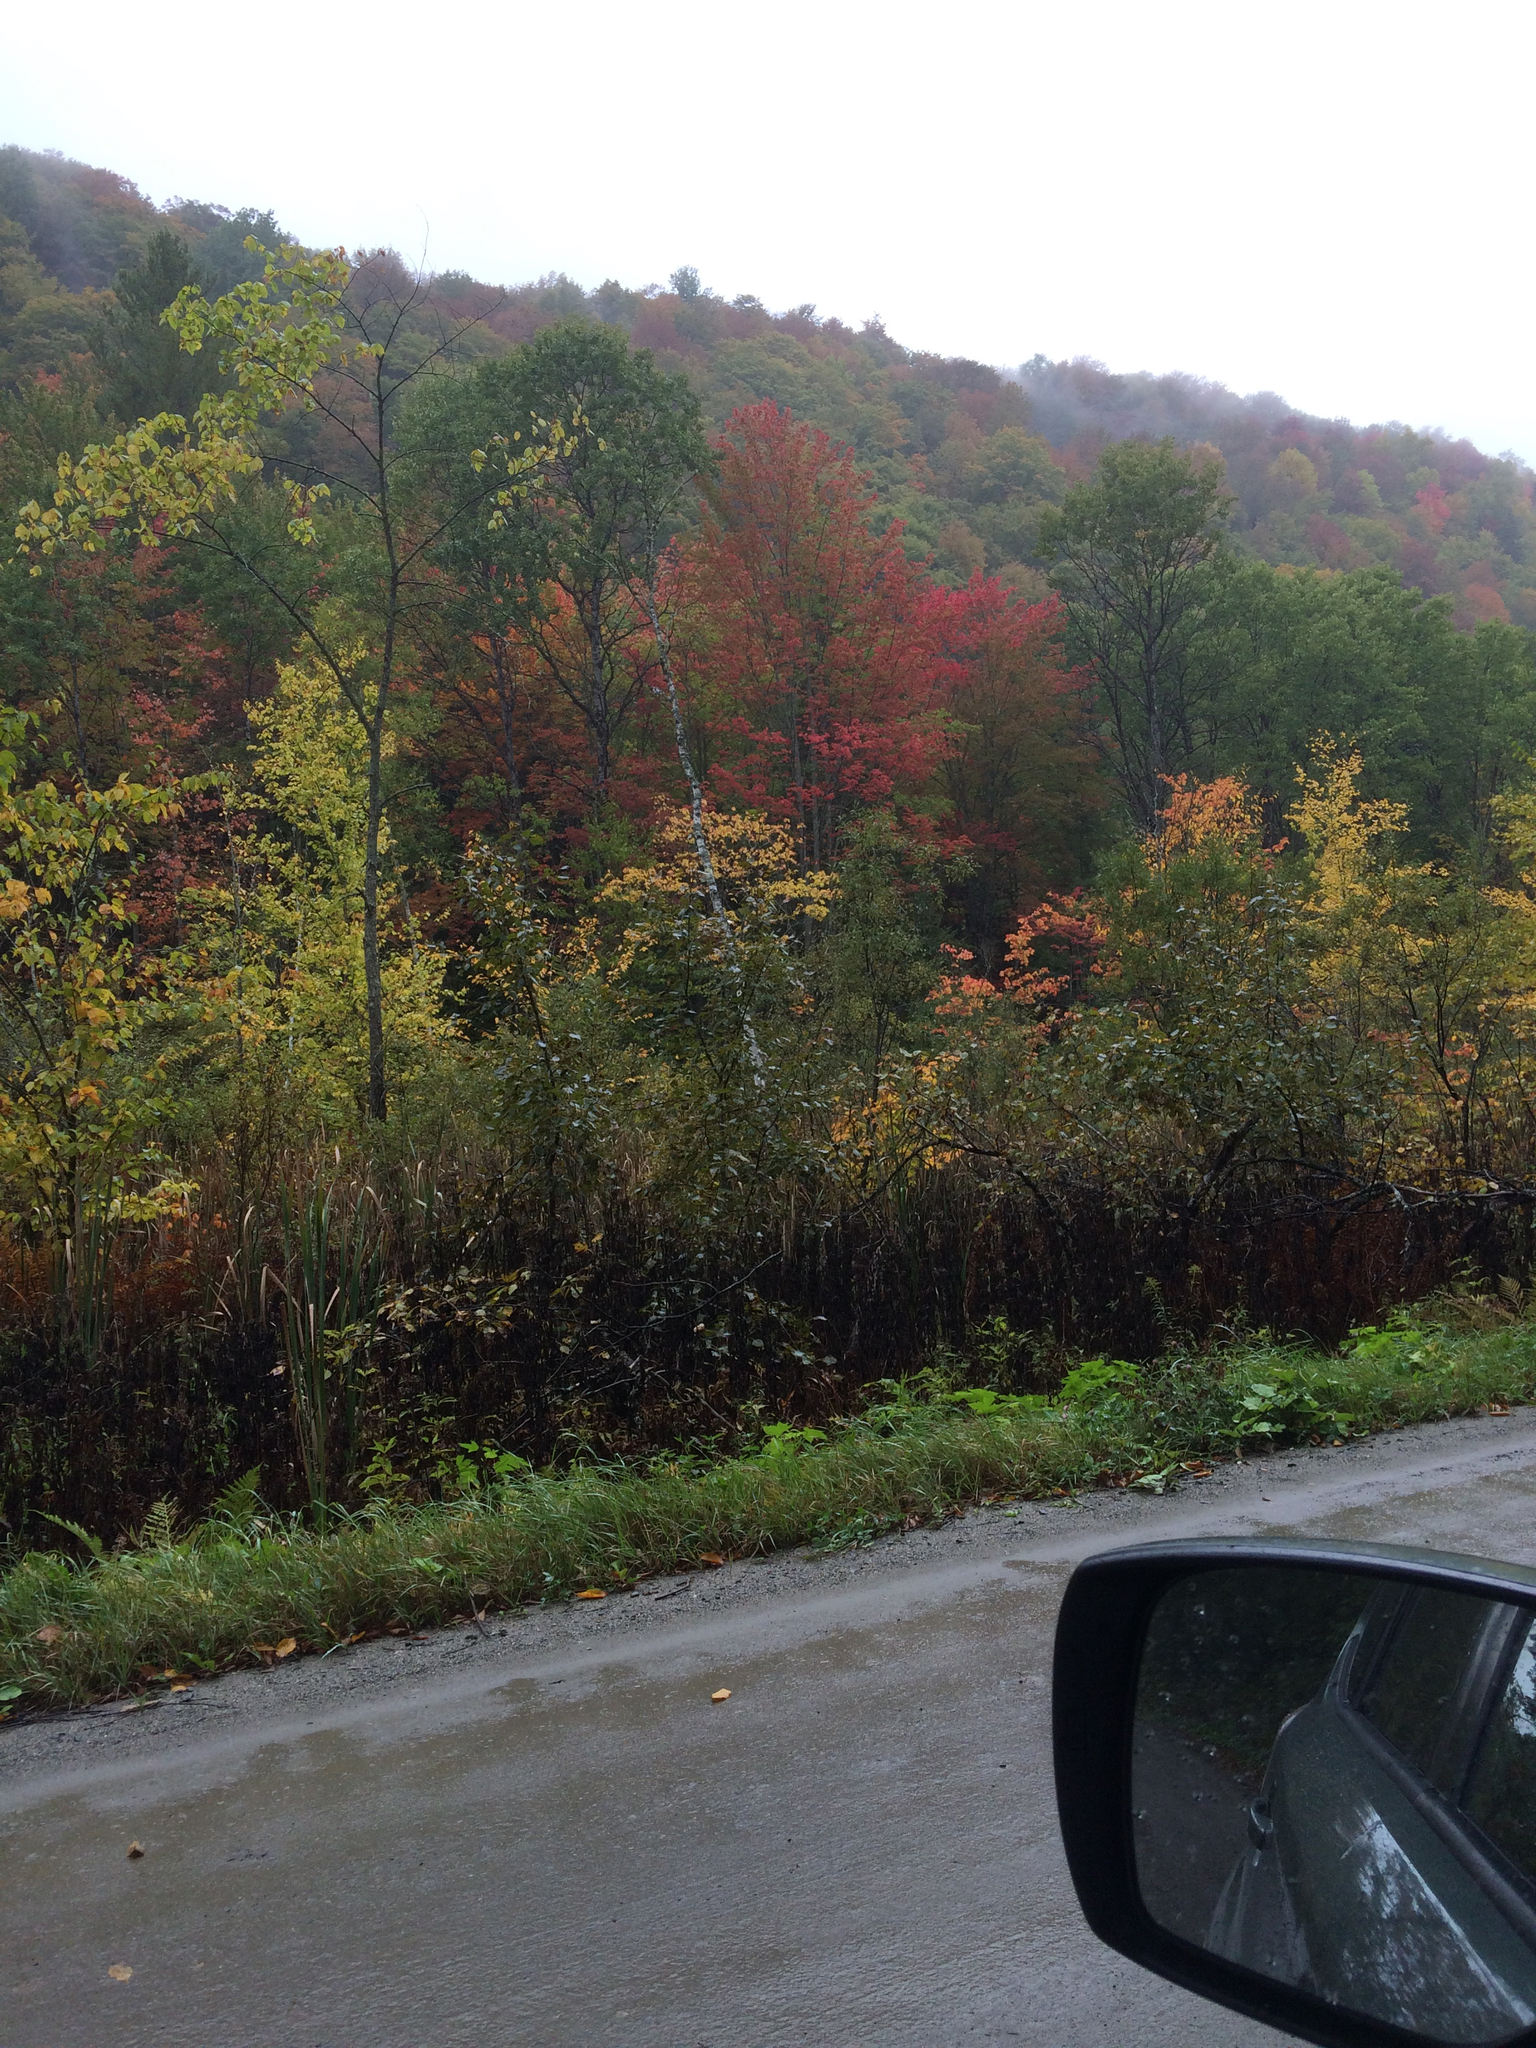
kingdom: Plantae
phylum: Tracheophyta
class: Magnoliopsida
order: Sapindales
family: Sapindaceae
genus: Acer
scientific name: Acer rubrum
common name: Red maple
